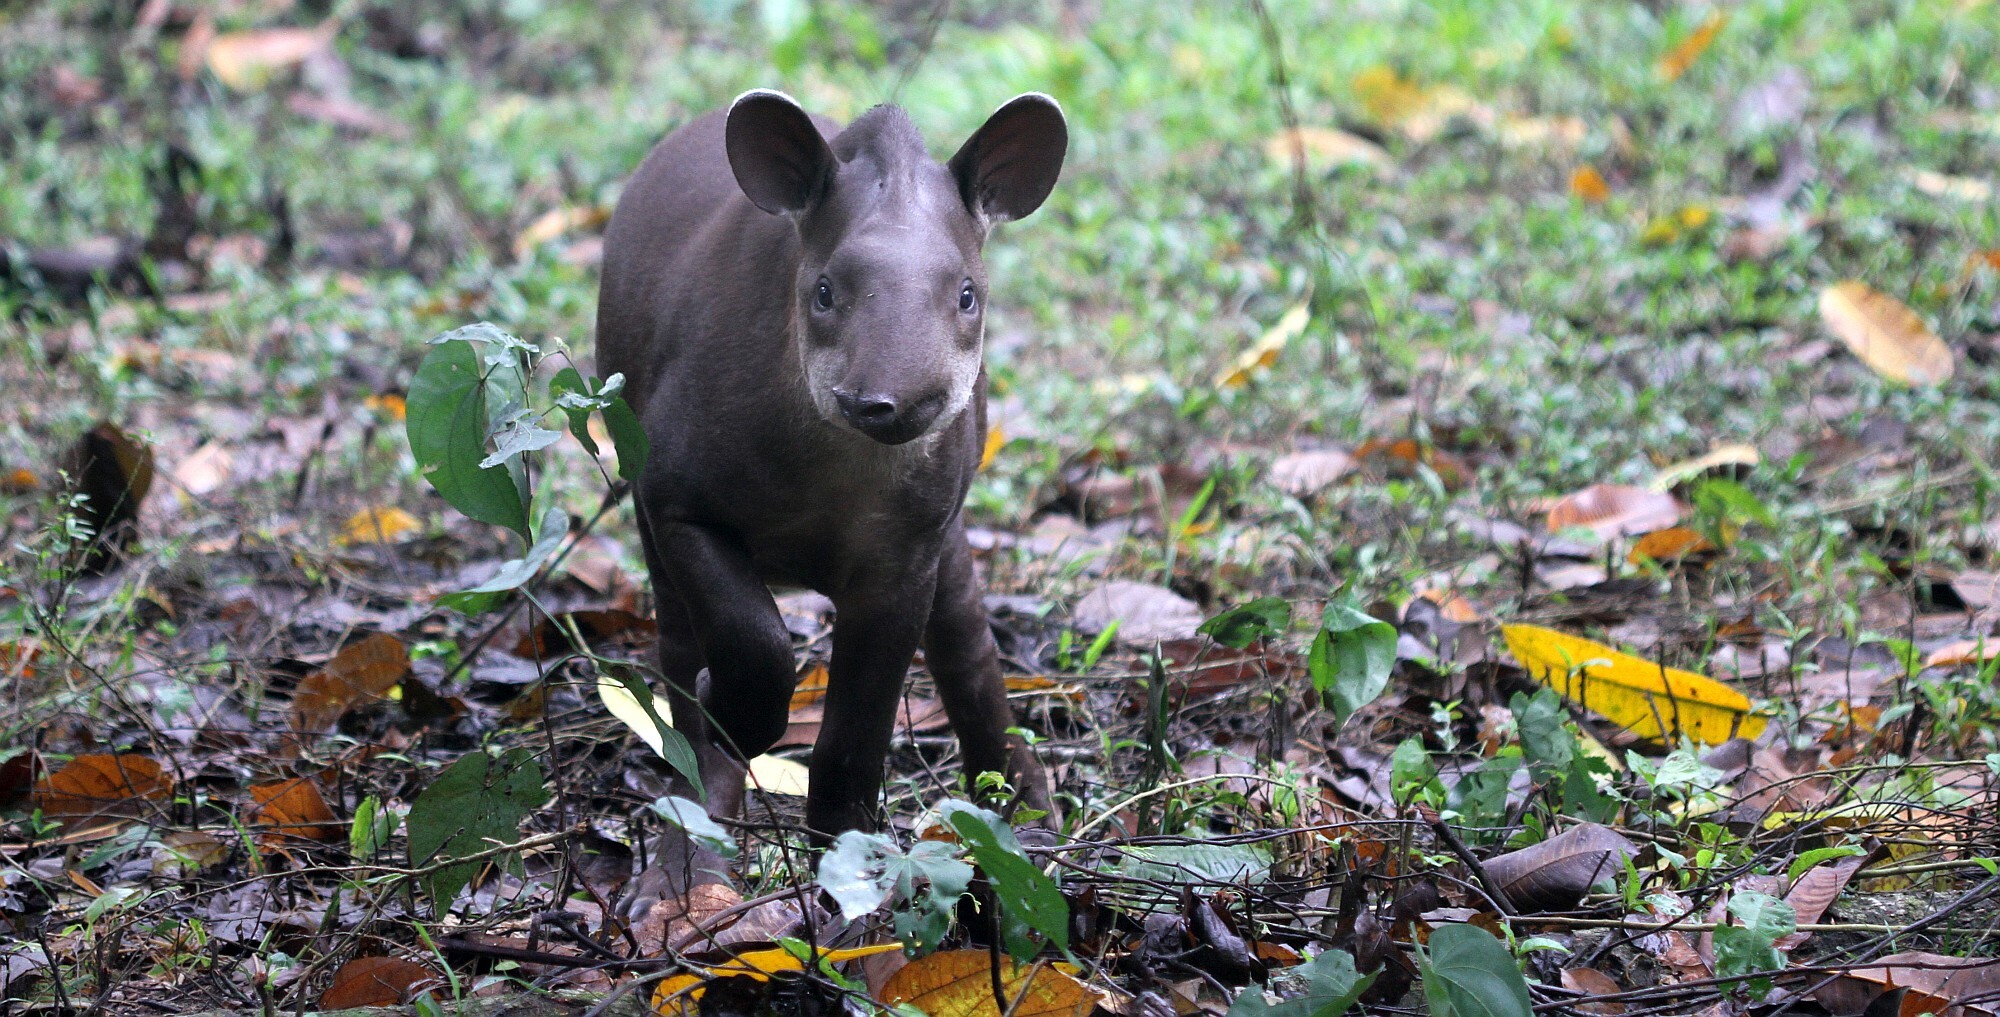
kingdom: Animalia
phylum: Chordata
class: Mammalia
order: Perissodactyla
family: Tapiridae
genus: Tapirus
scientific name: Tapirus terrestris
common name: Brazilian tapir
